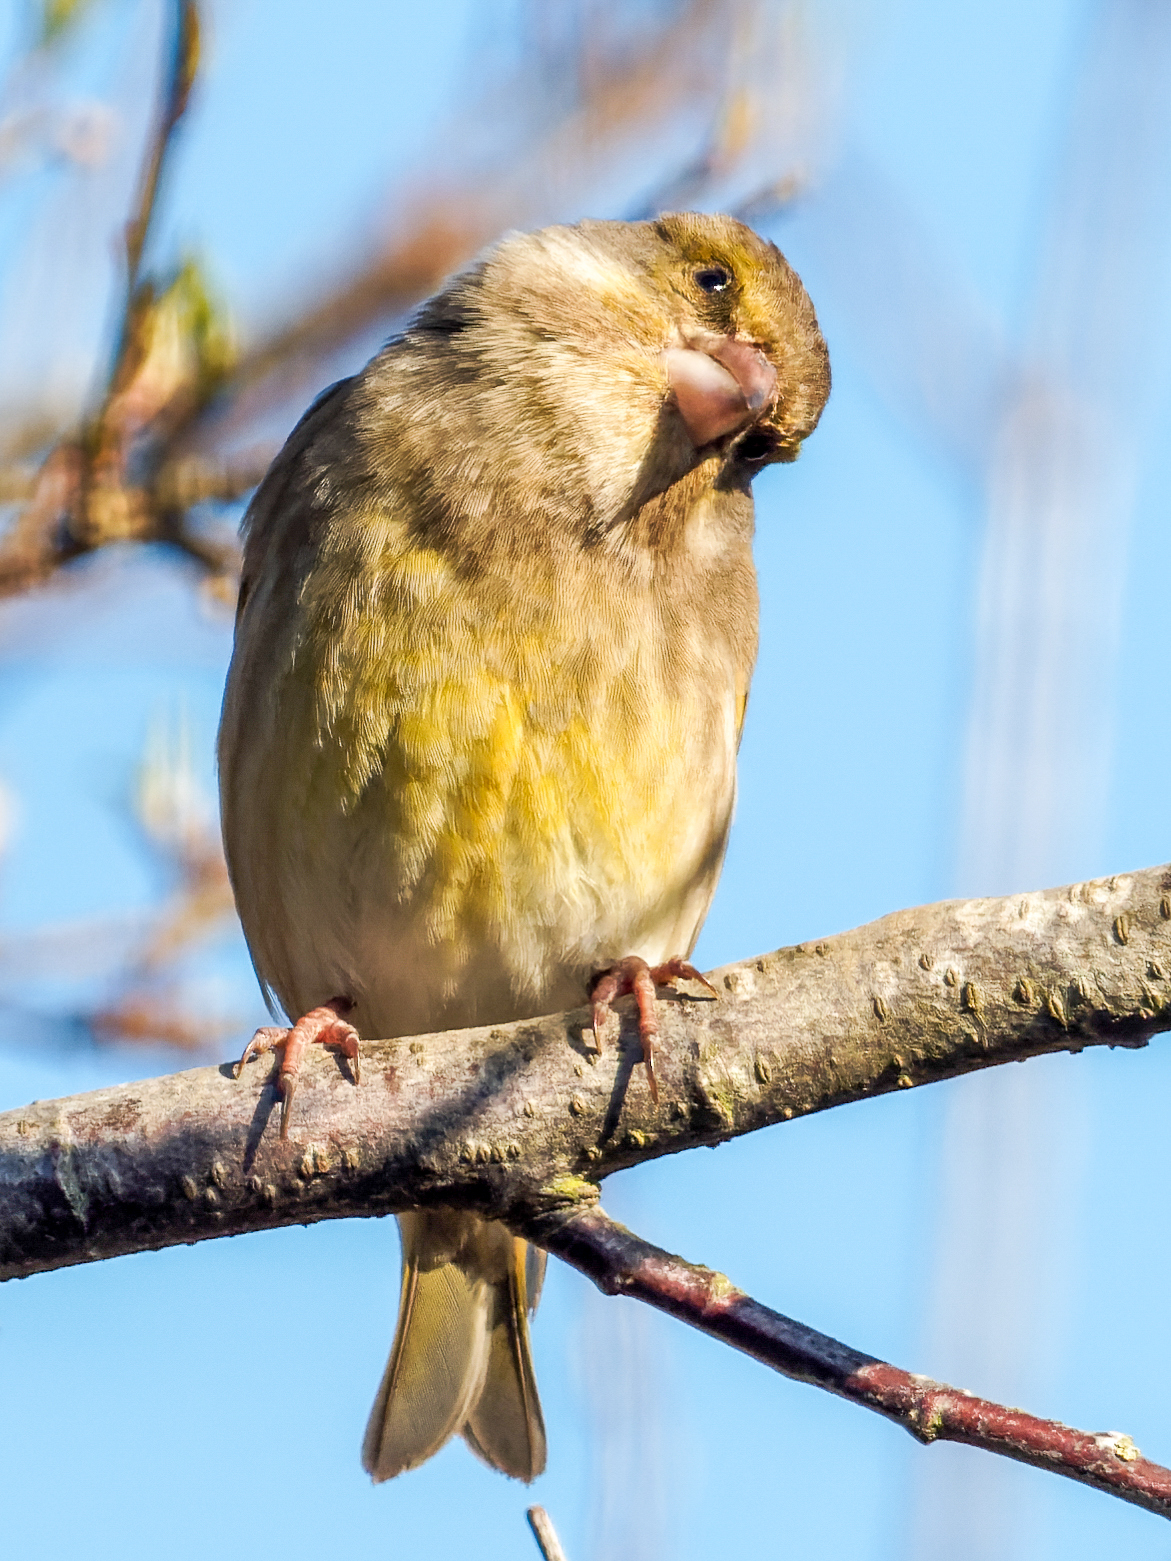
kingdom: Plantae
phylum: Tracheophyta
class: Liliopsida
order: Poales
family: Poaceae
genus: Chloris
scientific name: Chloris chloris
